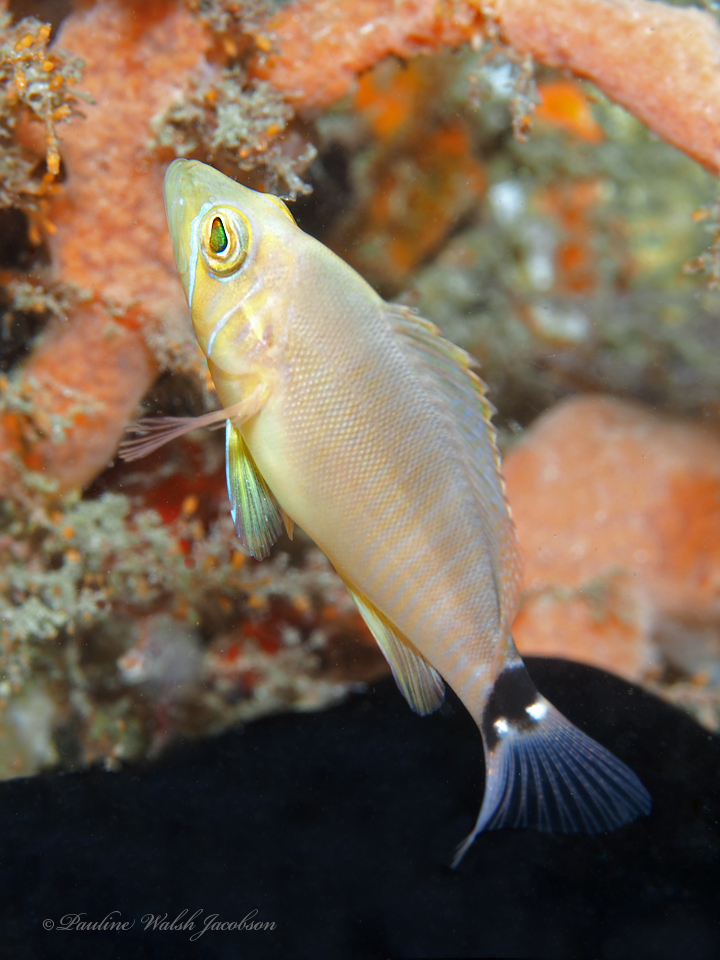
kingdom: Animalia
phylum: Chordata
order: Perciformes
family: Serranidae
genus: Hypoplectrus
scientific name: Hypoplectrus unicolor
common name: Butter hamlet
